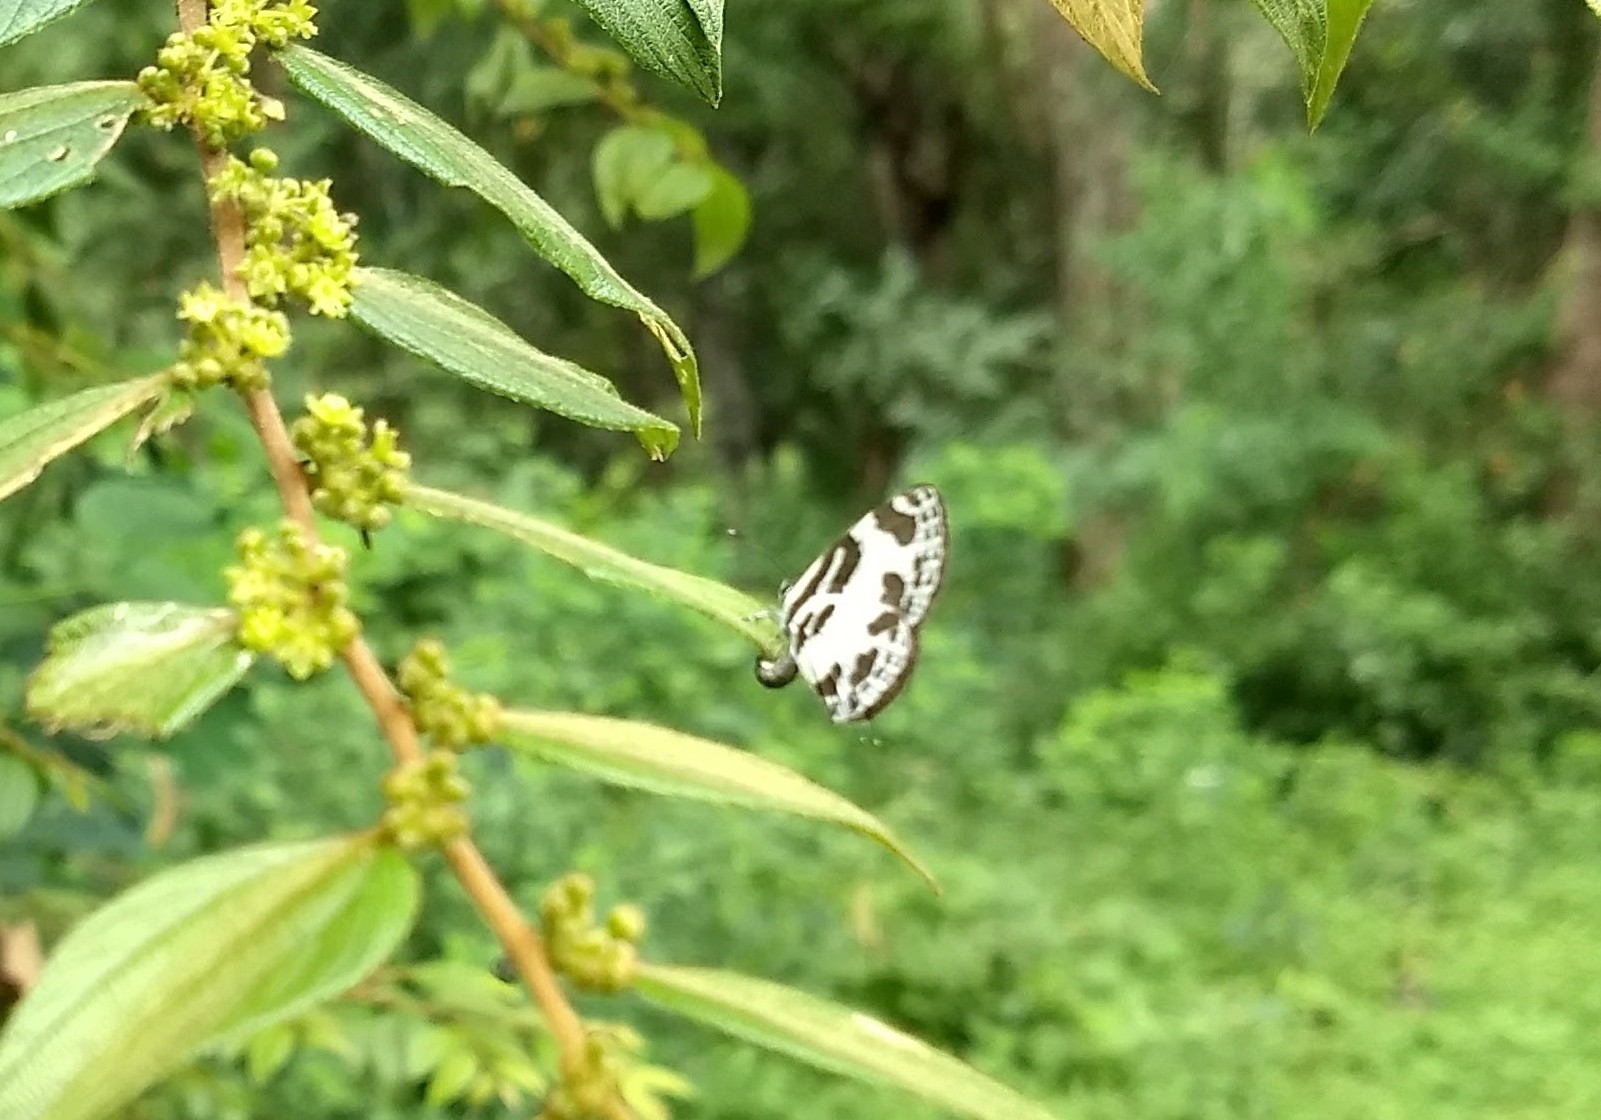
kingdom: Animalia
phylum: Arthropoda
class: Insecta
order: Lepidoptera
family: Lycaenidae
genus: Discolampa
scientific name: Discolampa ethion
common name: Banded blue pierrot
